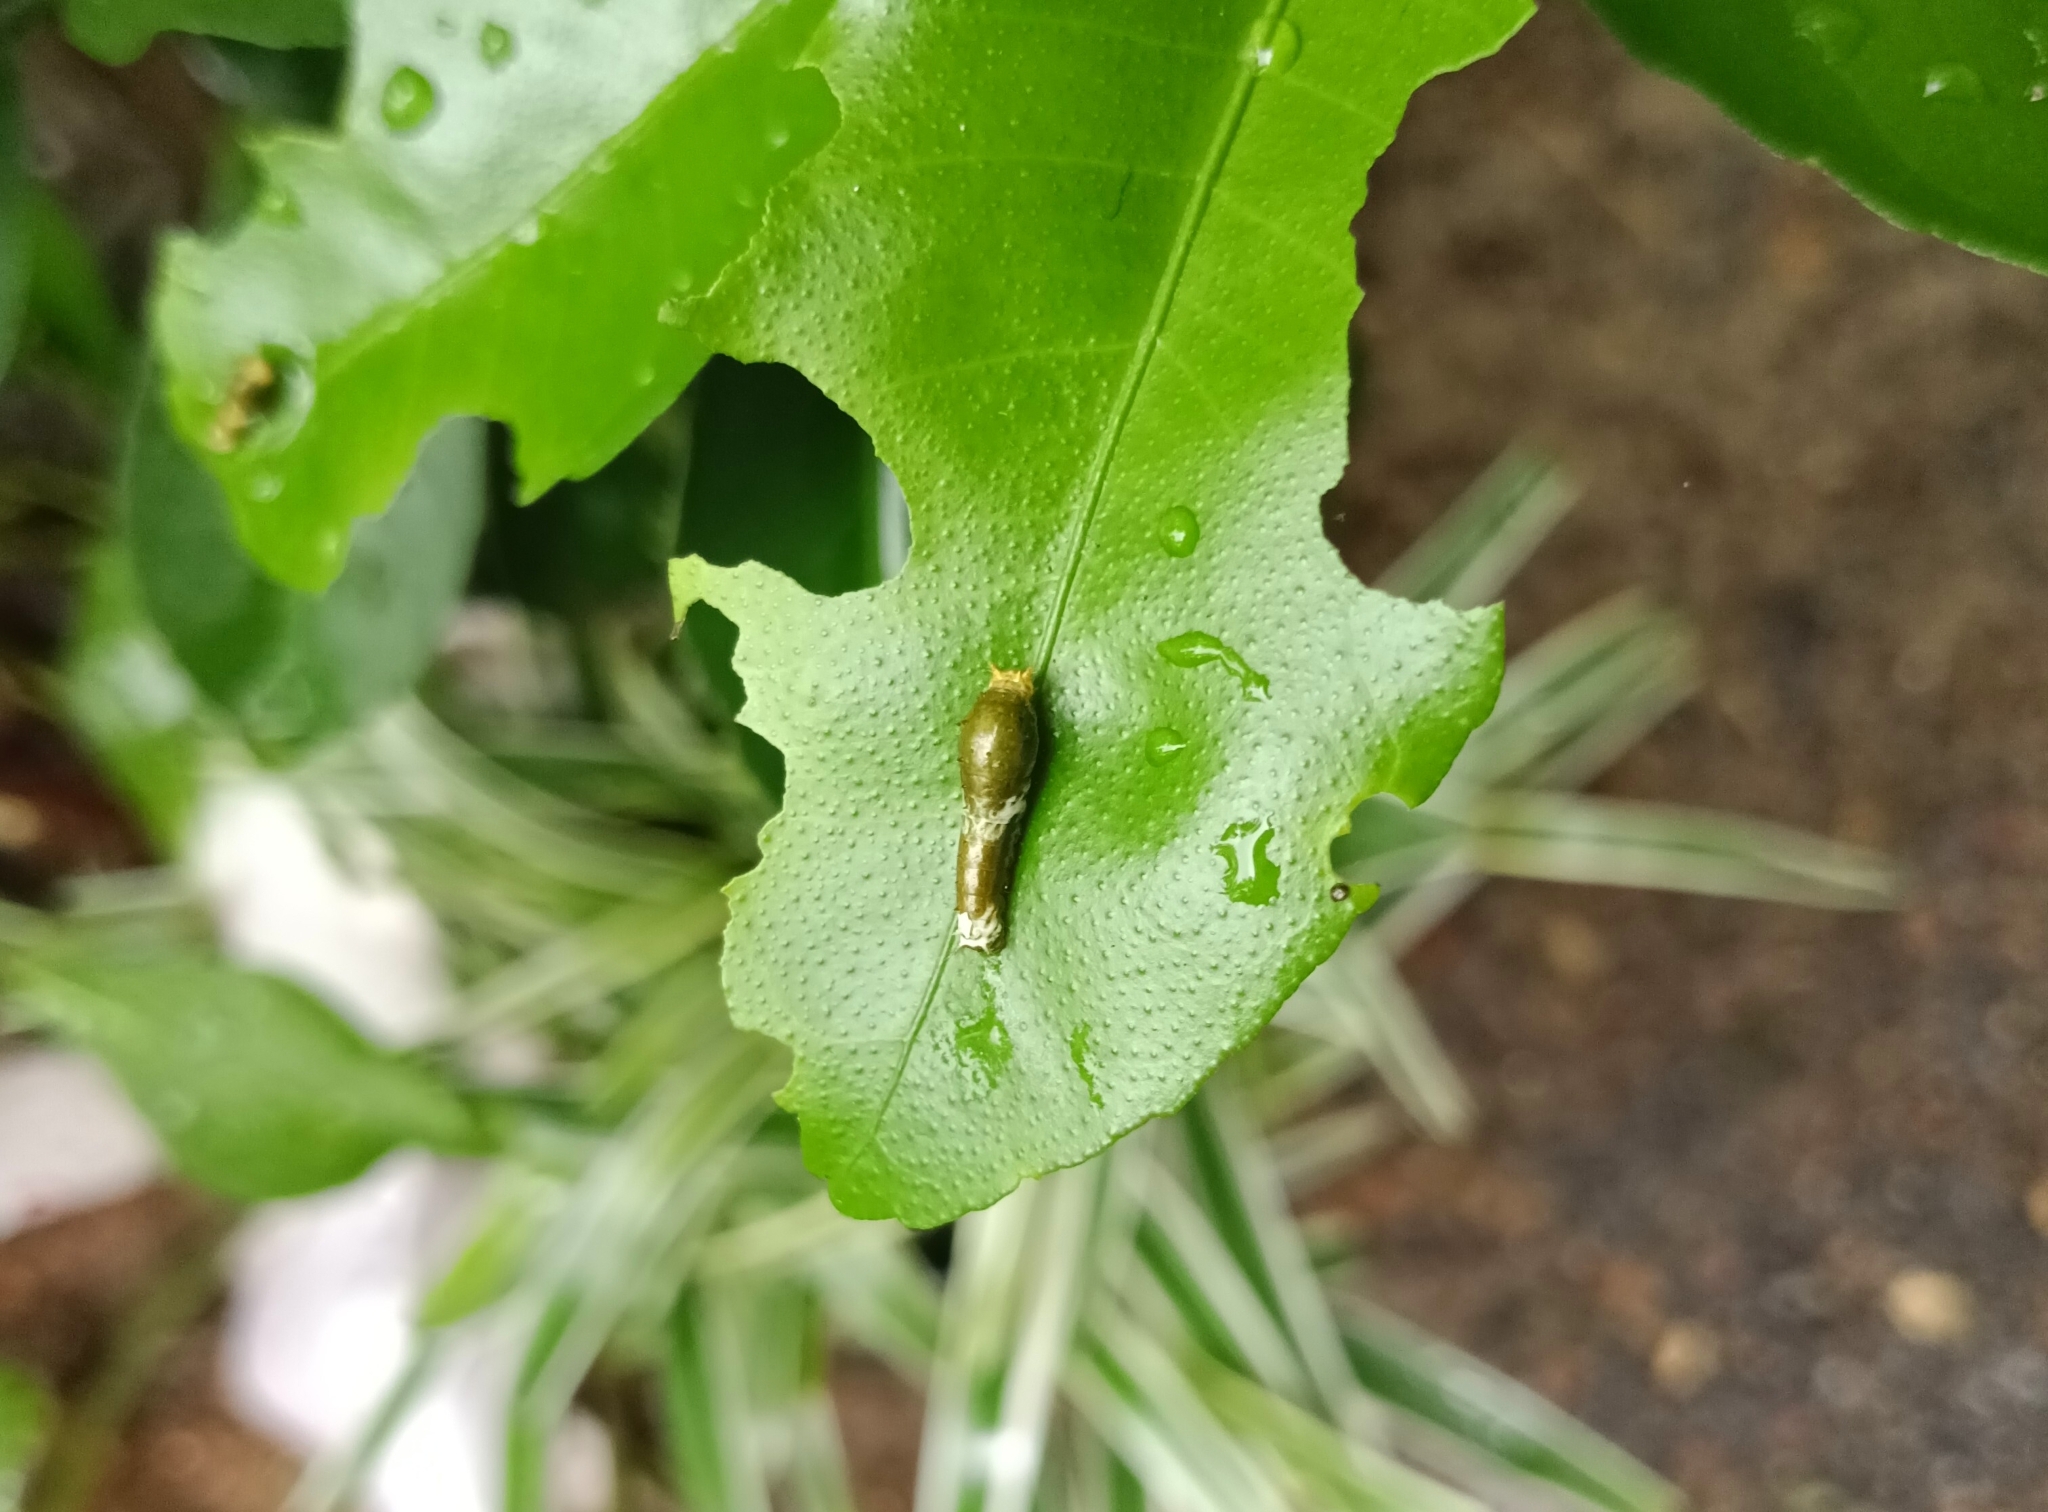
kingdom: Animalia
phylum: Arthropoda
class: Insecta
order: Lepidoptera
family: Papilionidae
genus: Papilio
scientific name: Papilio polytes
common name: Common mormon
